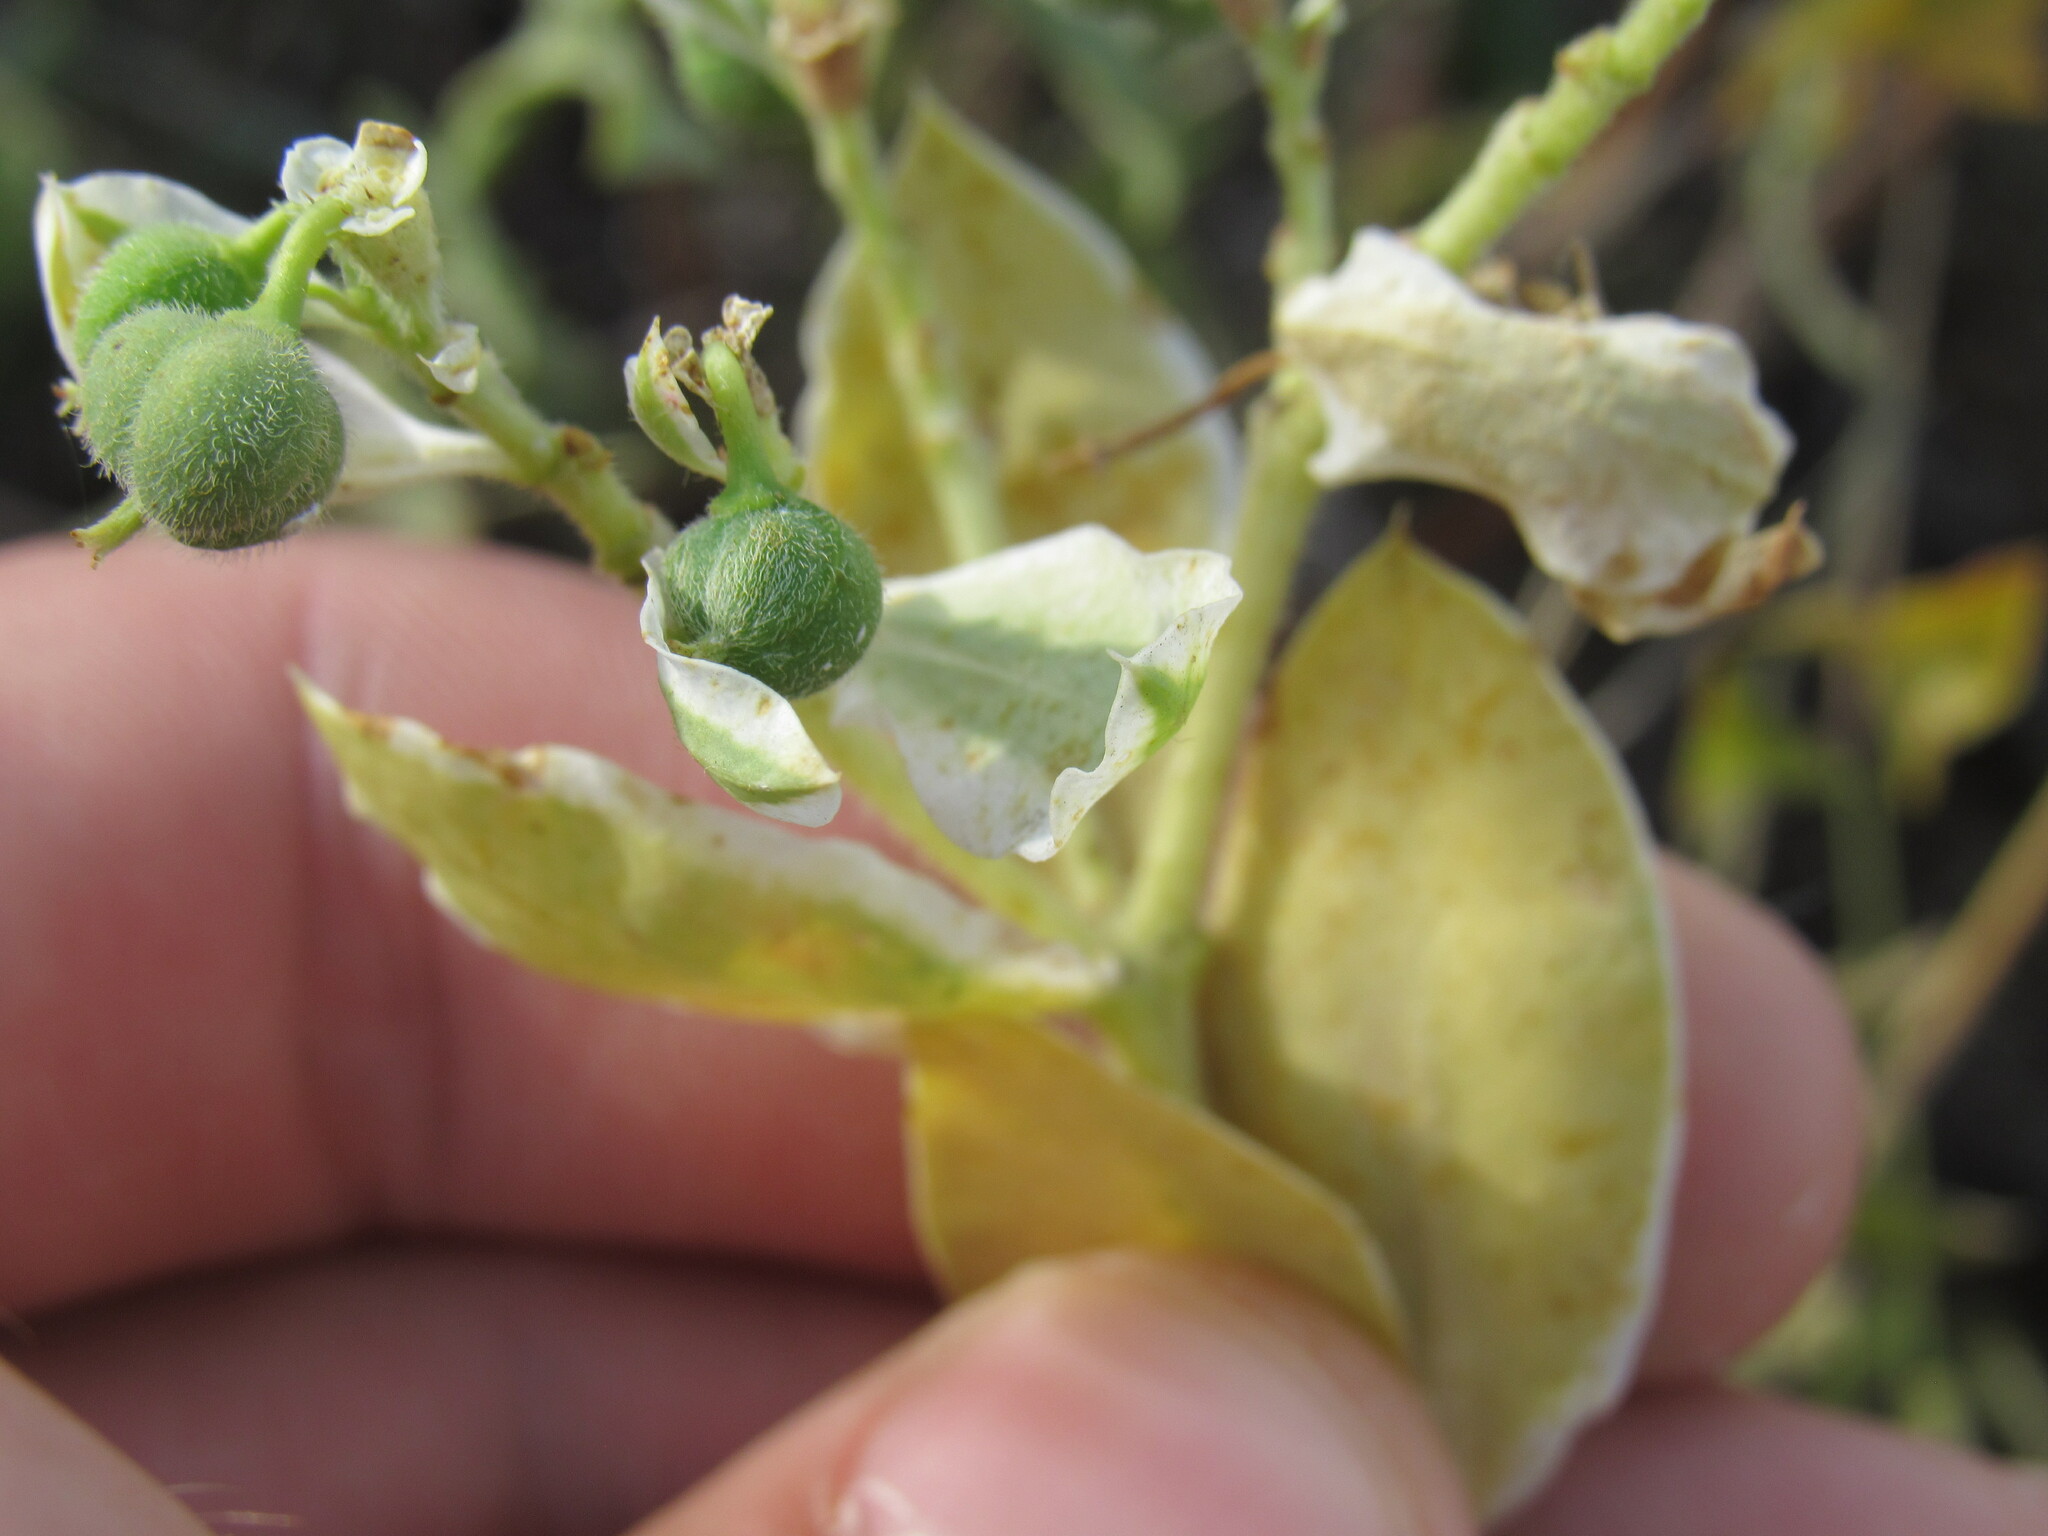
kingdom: Plantae
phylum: Tracheophyta
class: Magnoliopsida
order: Malpighiales
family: Euphorbiaceae
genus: Euphorbia
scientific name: Euphorbia marginata
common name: Ghostweed
